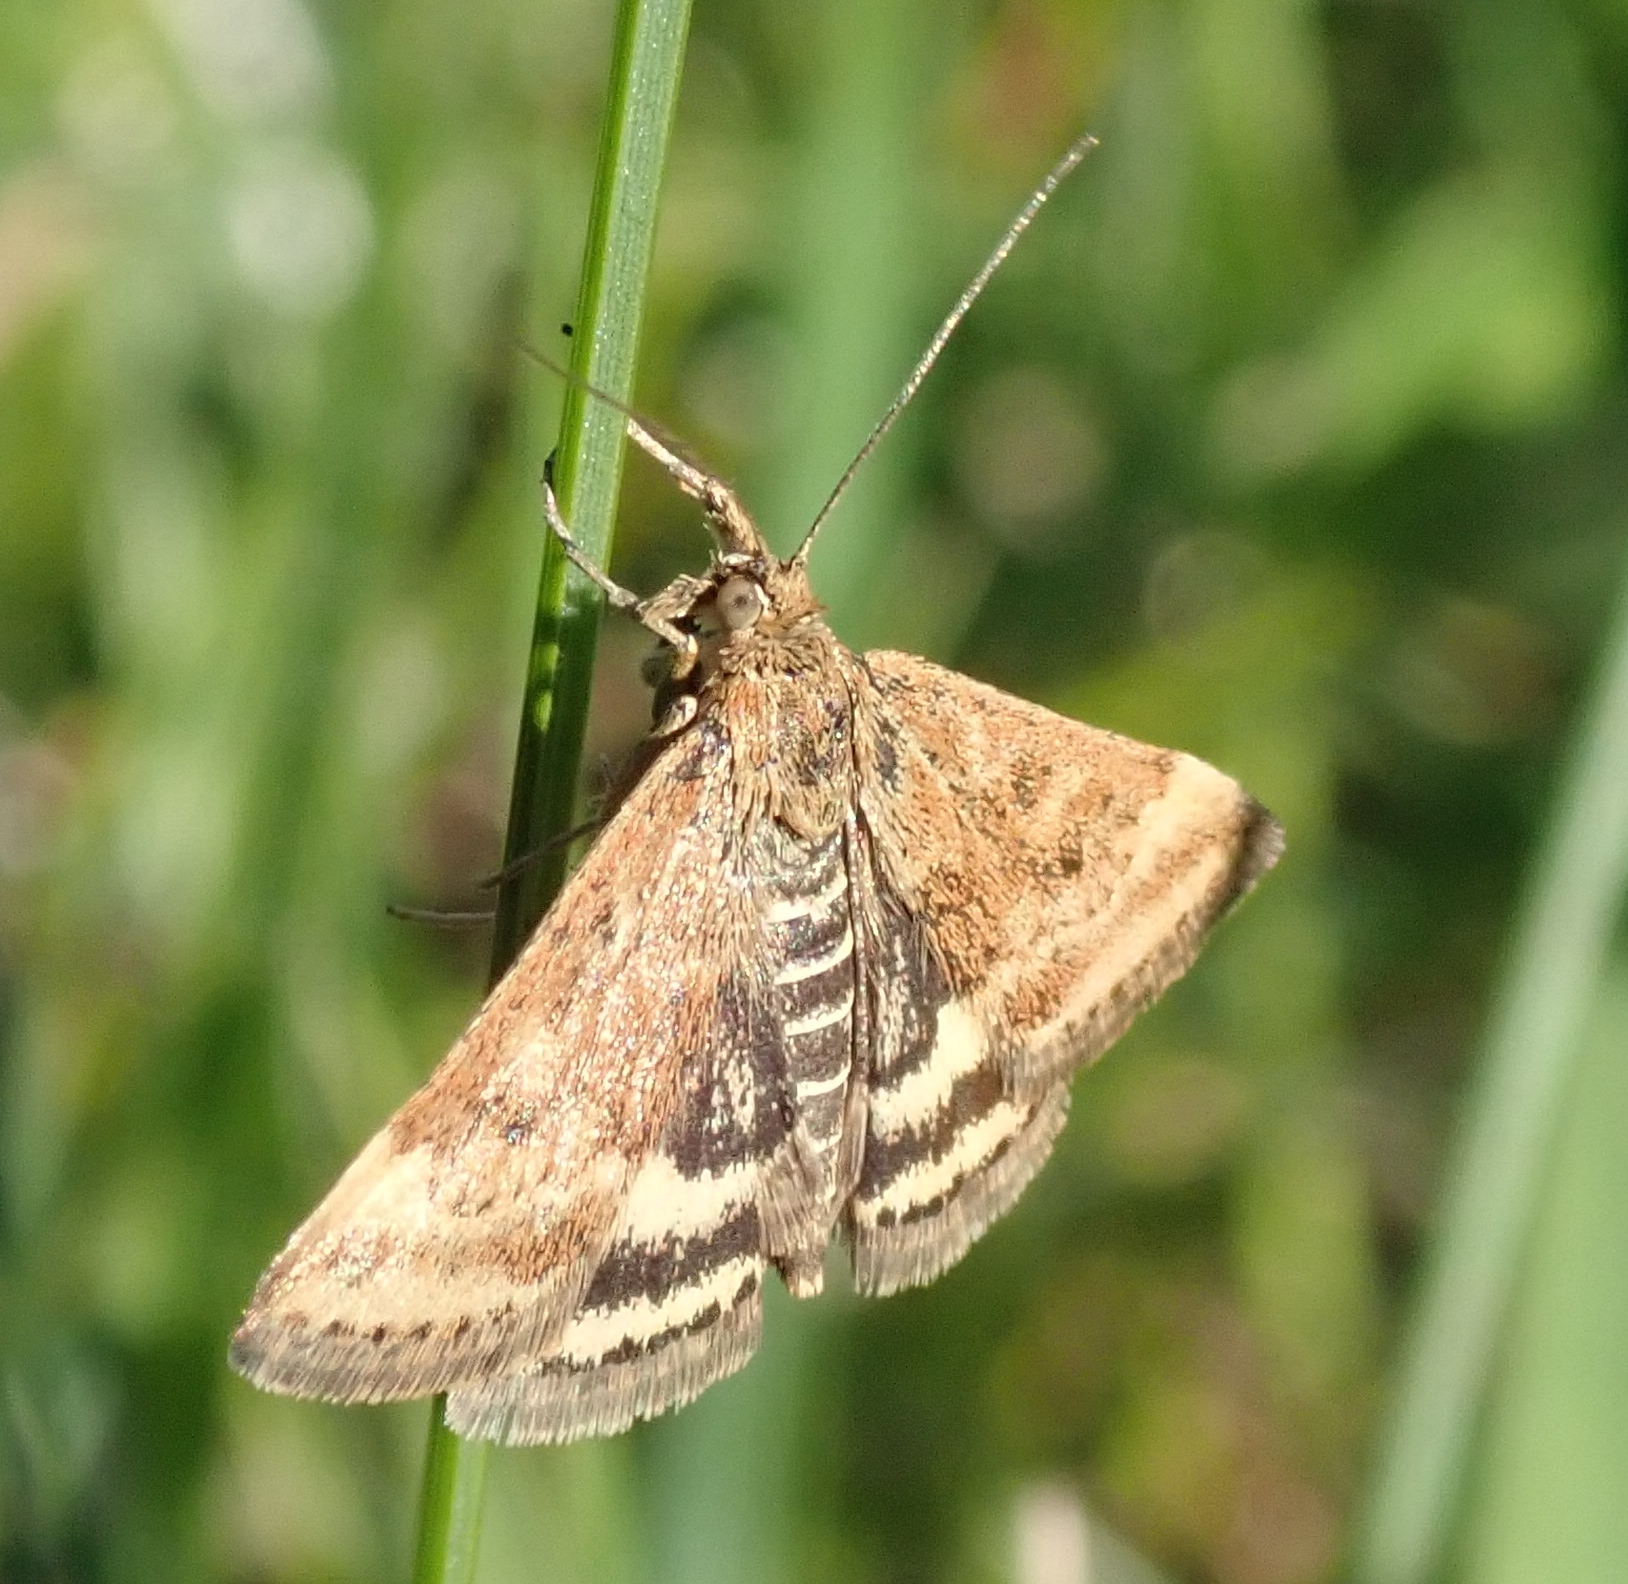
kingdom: Animalia
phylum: Arthropoda
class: Insecta
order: Lepidoptera
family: Crambidae
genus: Pyrausta
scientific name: Pyrausta despicata
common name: Straw-barred pearl
